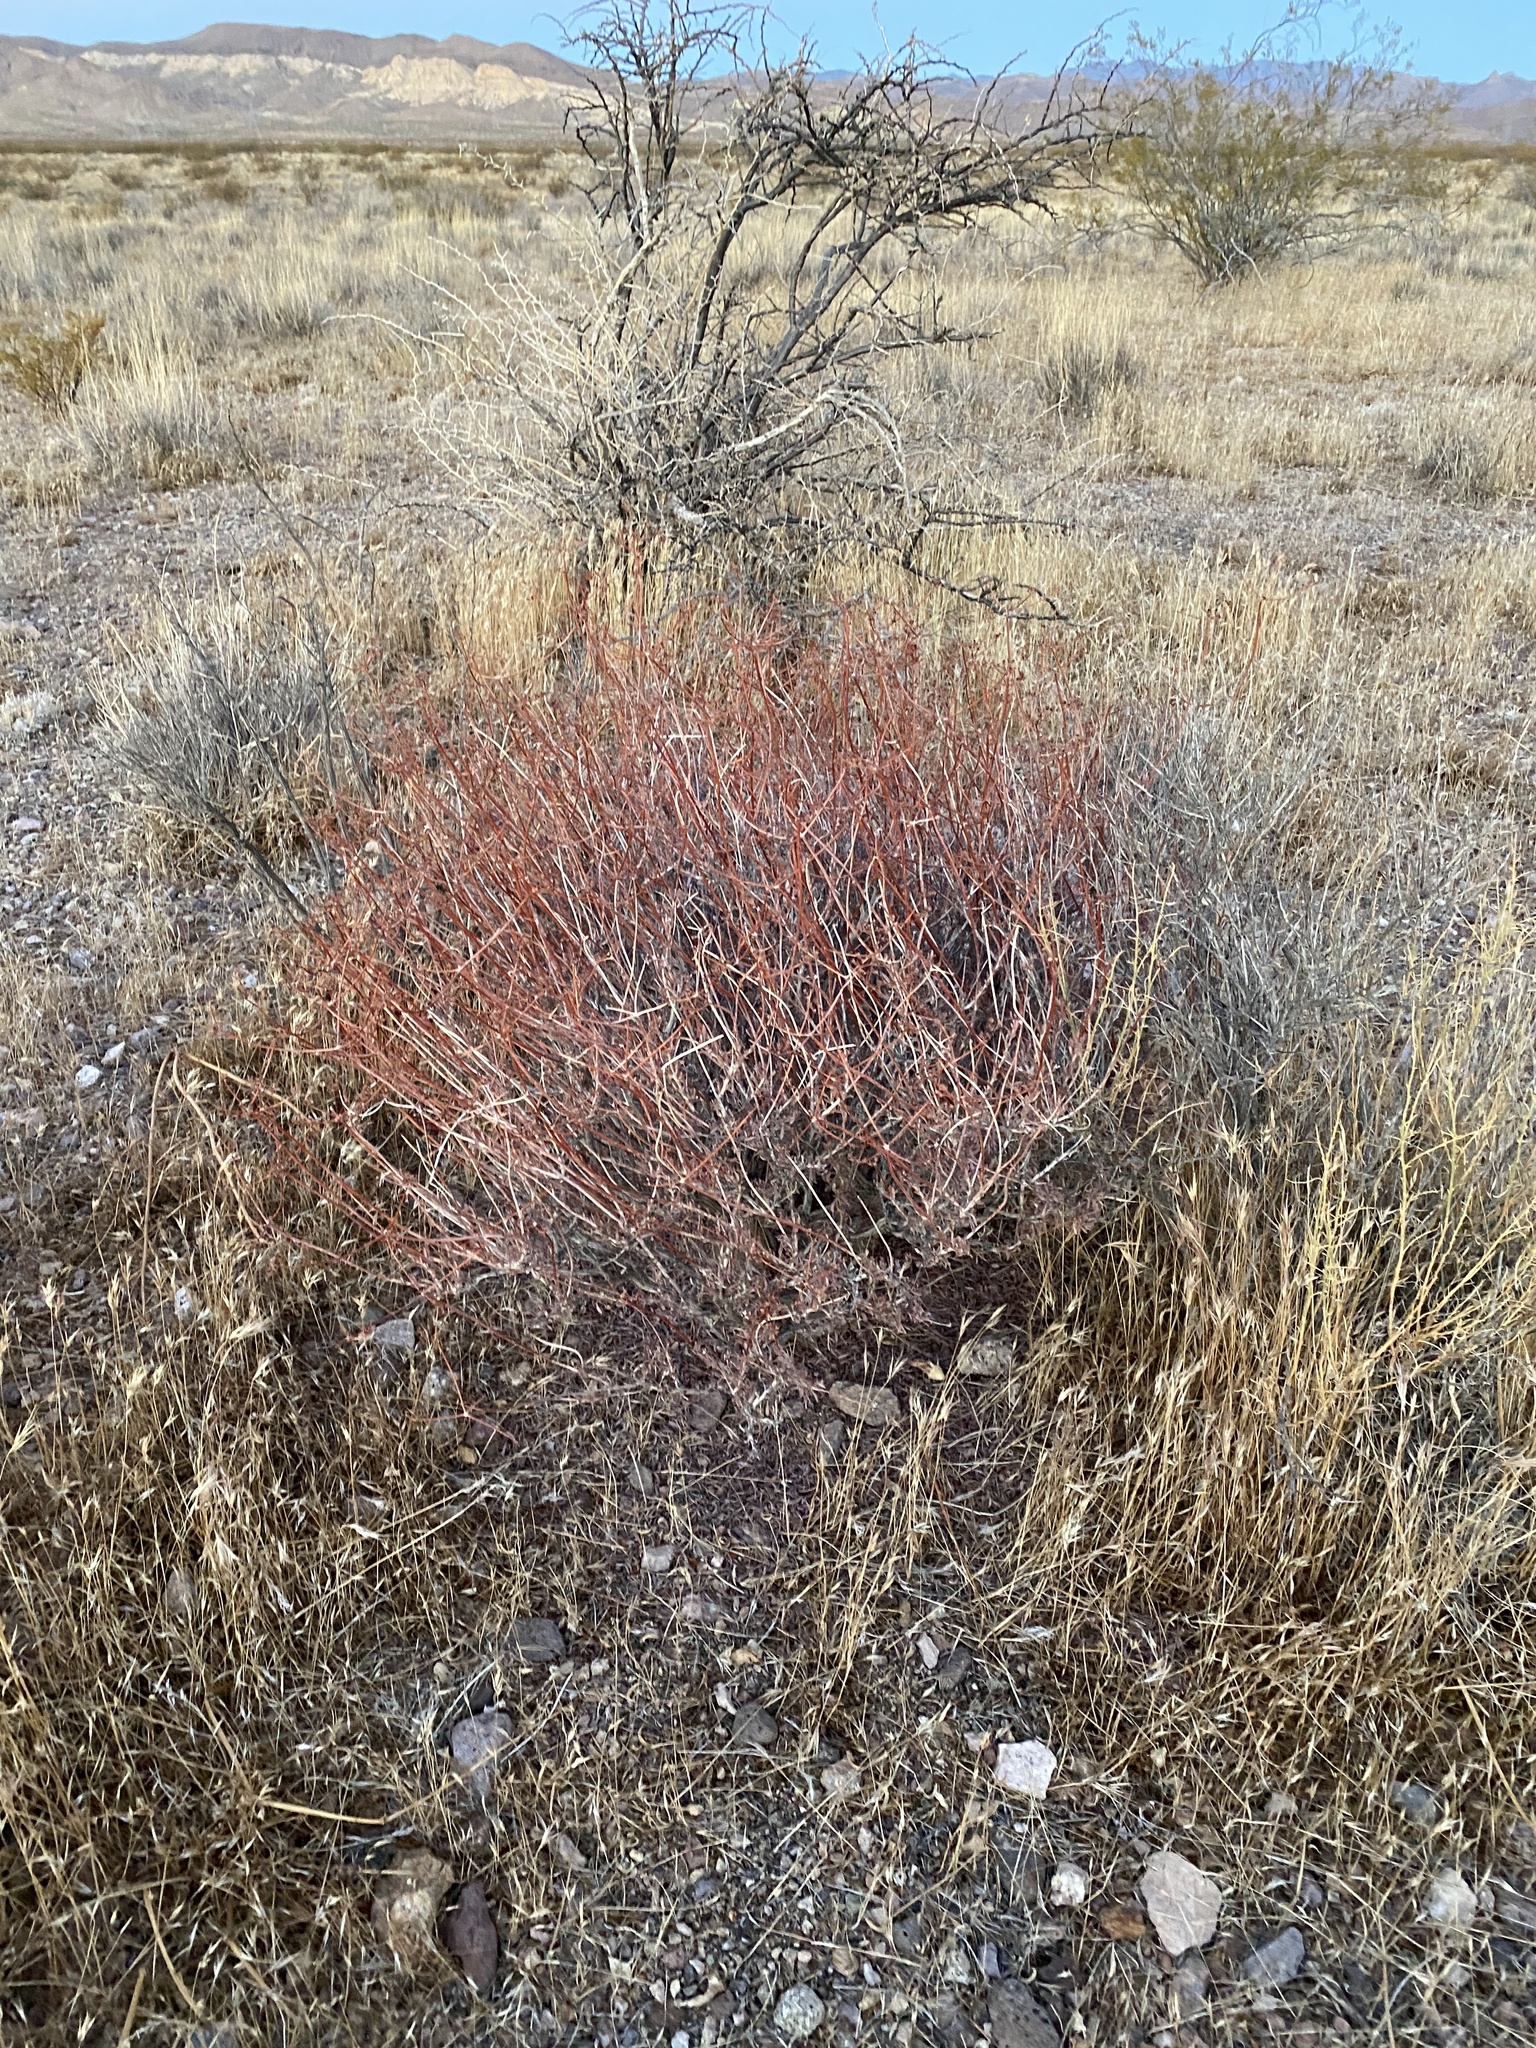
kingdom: Plantae
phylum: Tracheophyta
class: Magnoliopsida
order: Caryophyllales
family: Polygonaceae
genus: Eriogonum
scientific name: Eriogonum fasciculatum
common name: California wild buckwheat
